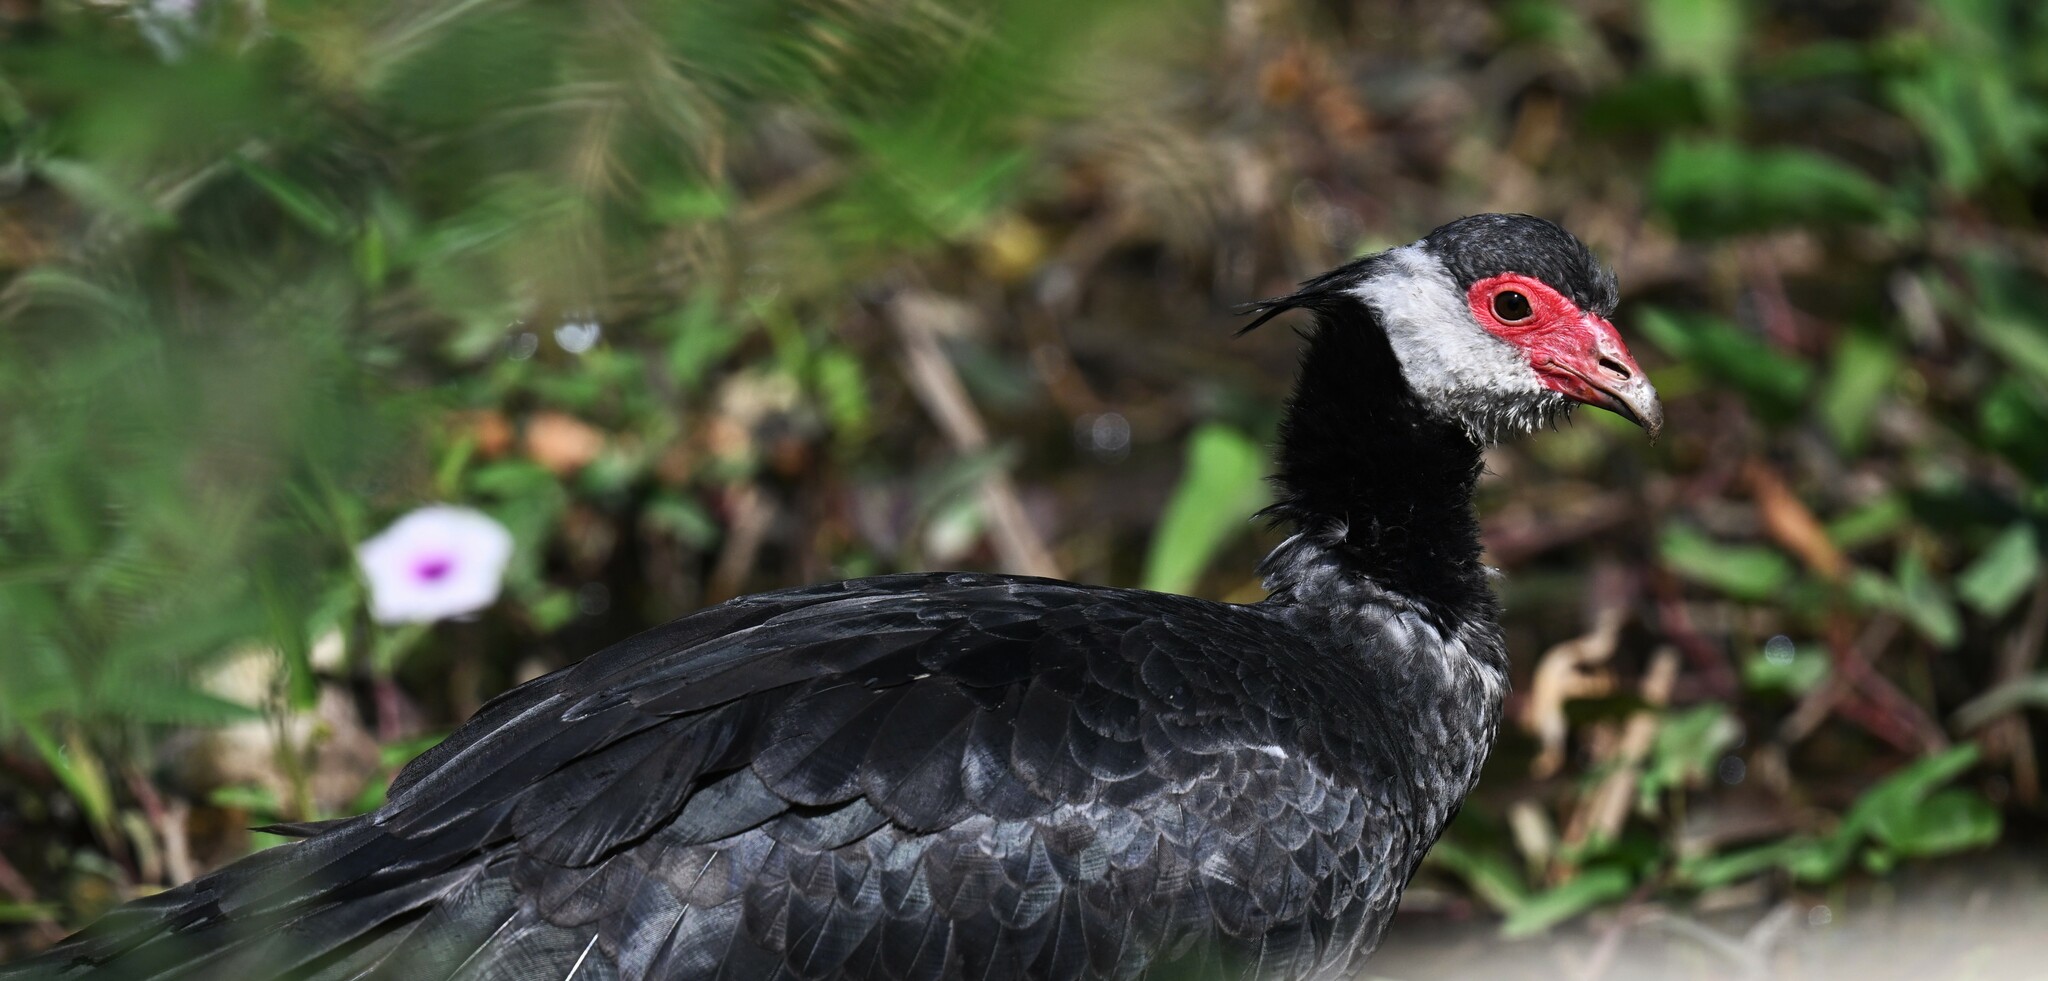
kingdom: Animalia
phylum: Chordata
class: Aves
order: Anseriformes
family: Anhimidae
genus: Chauna
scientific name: Chauna chavaria
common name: Northern screamer
